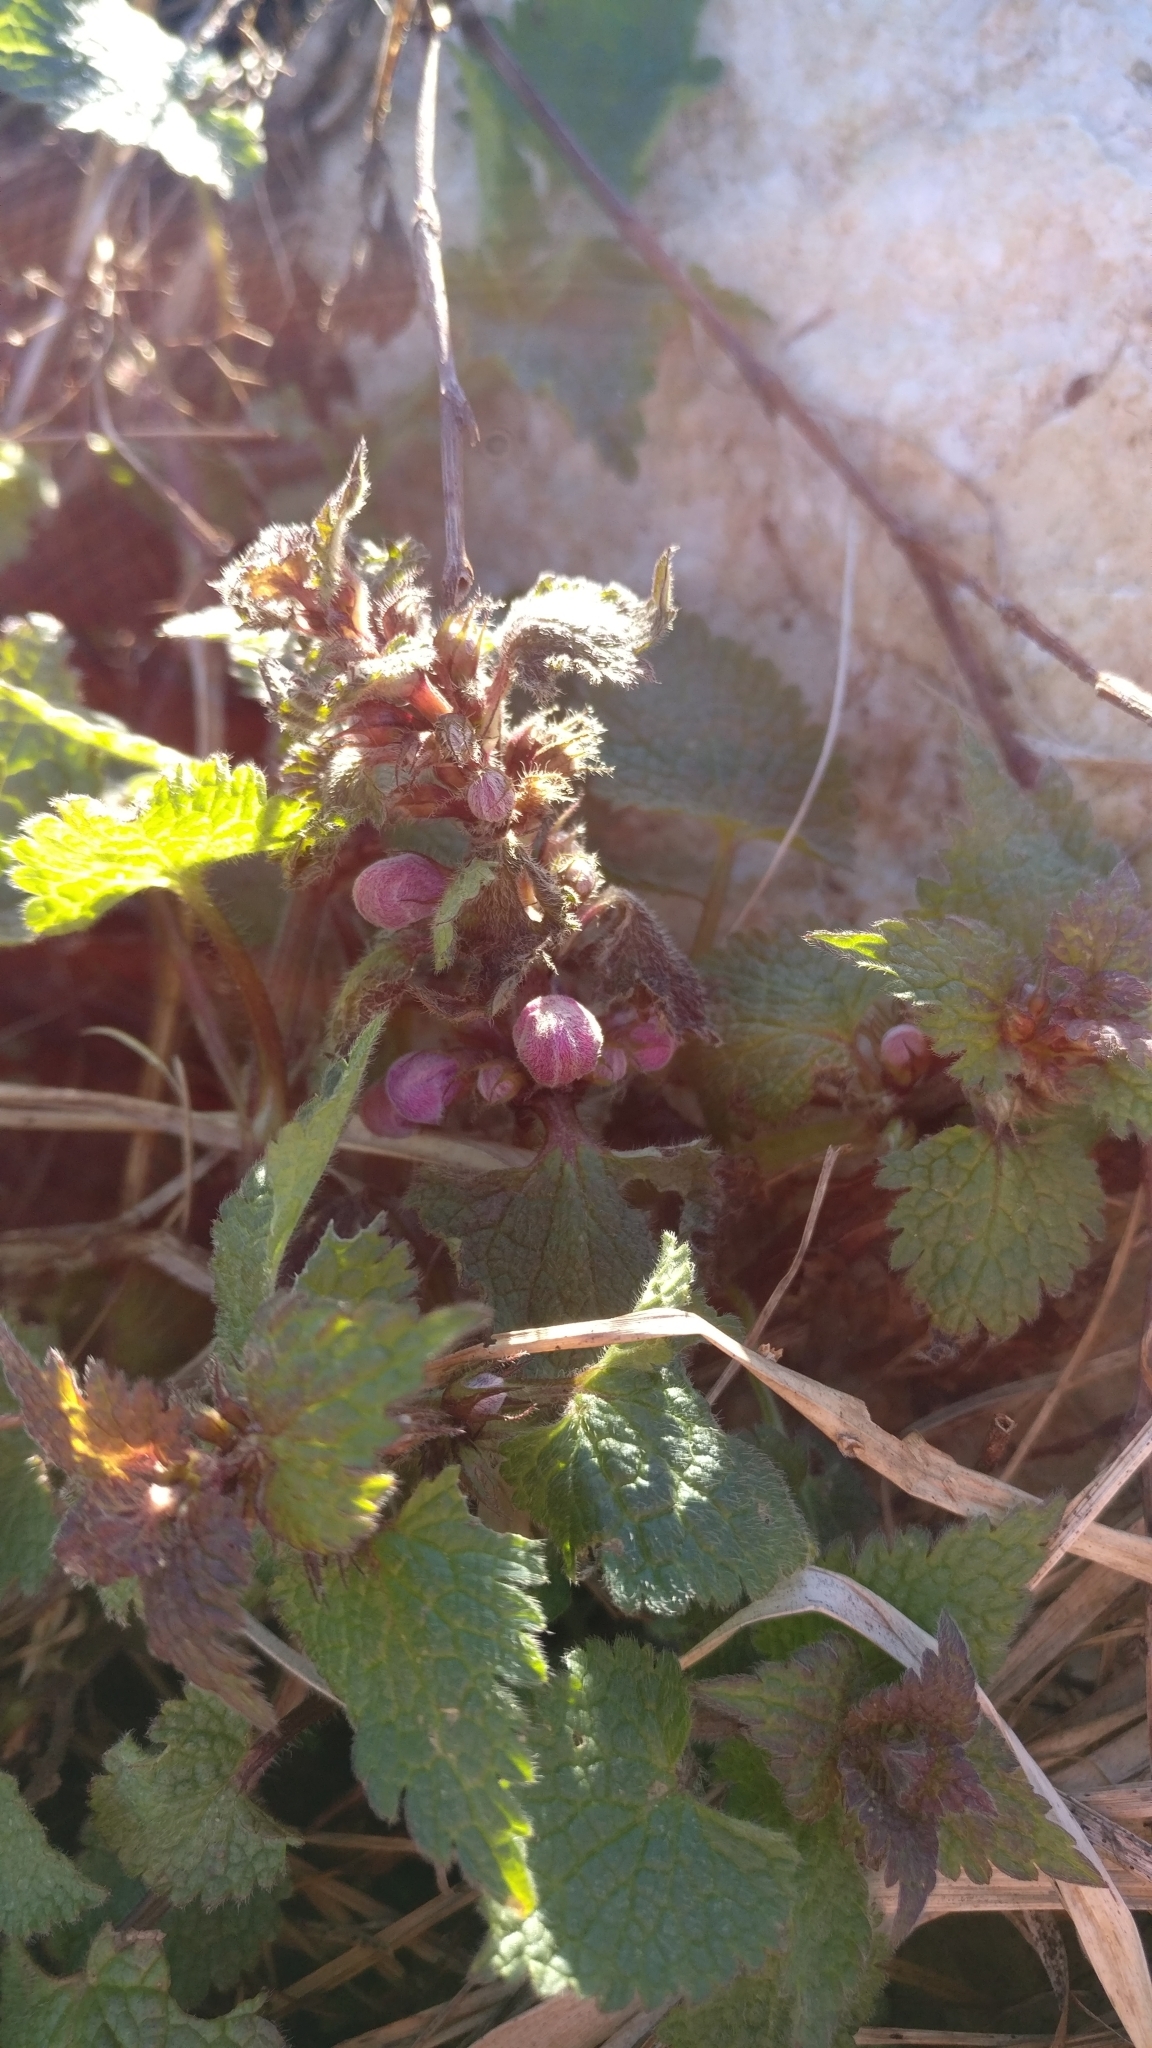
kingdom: Plantae
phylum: Tracheophyta
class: Magnoliopsida
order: Lamiales
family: Lamiaceae
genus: Lamium
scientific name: Lamium purpureum
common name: Red dead-nettle
